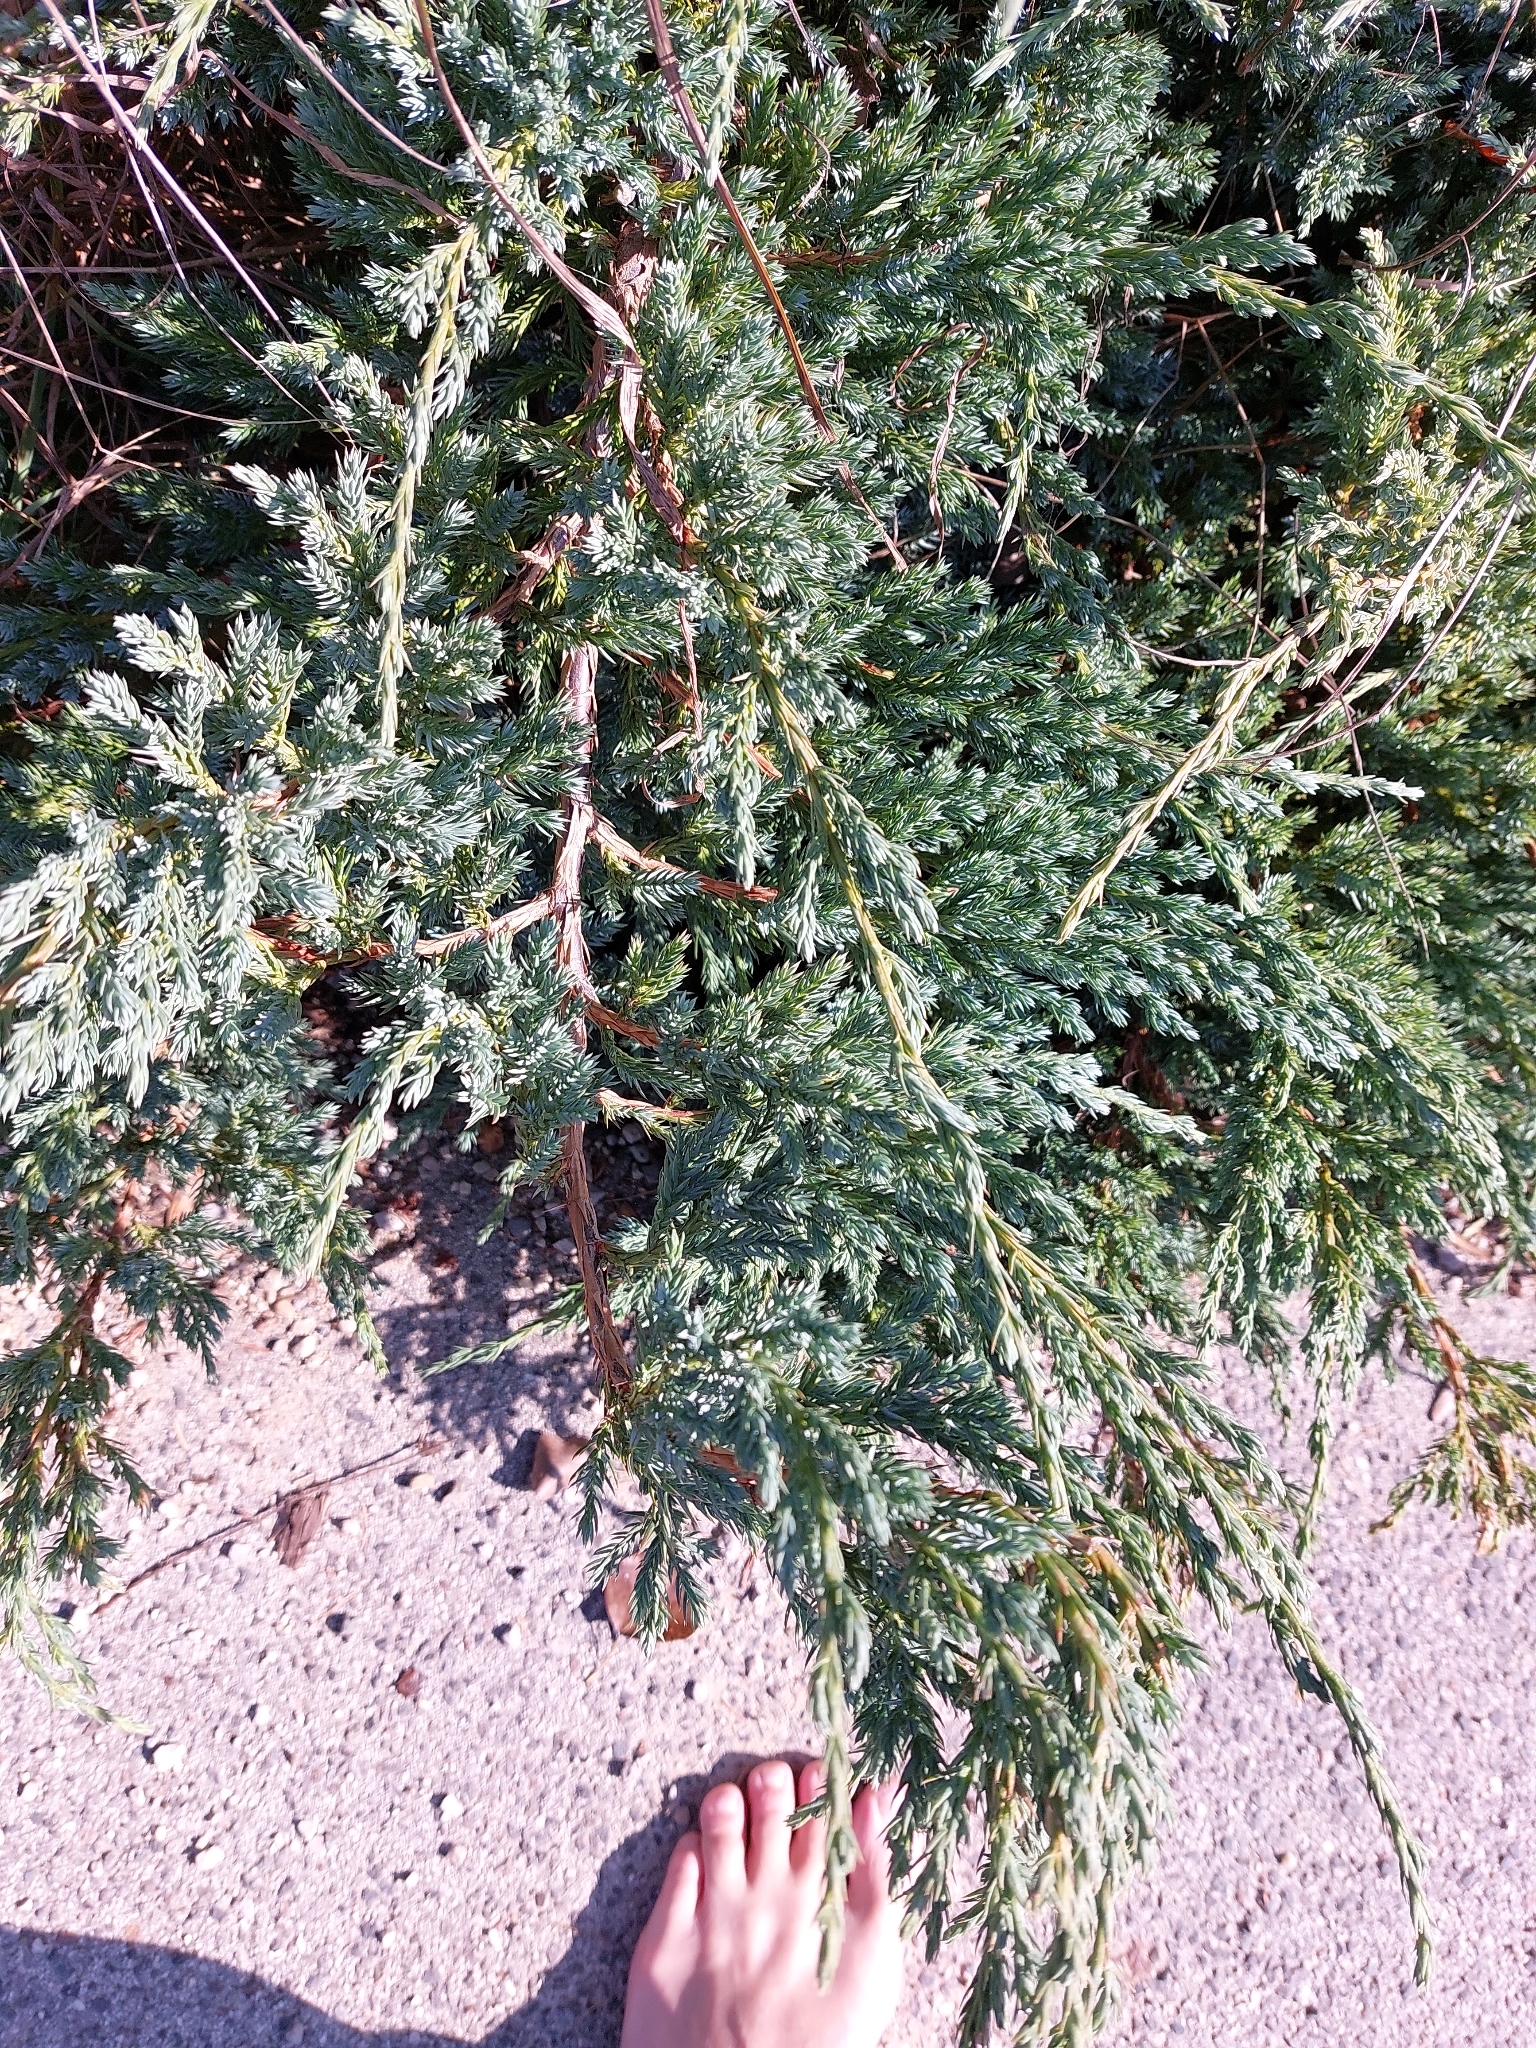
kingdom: Plantae
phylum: Tracheophyta
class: Pinopsida
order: Pinales
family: Cupressaceae
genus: Juniperus
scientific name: Juniperus communis
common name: Common juniper
